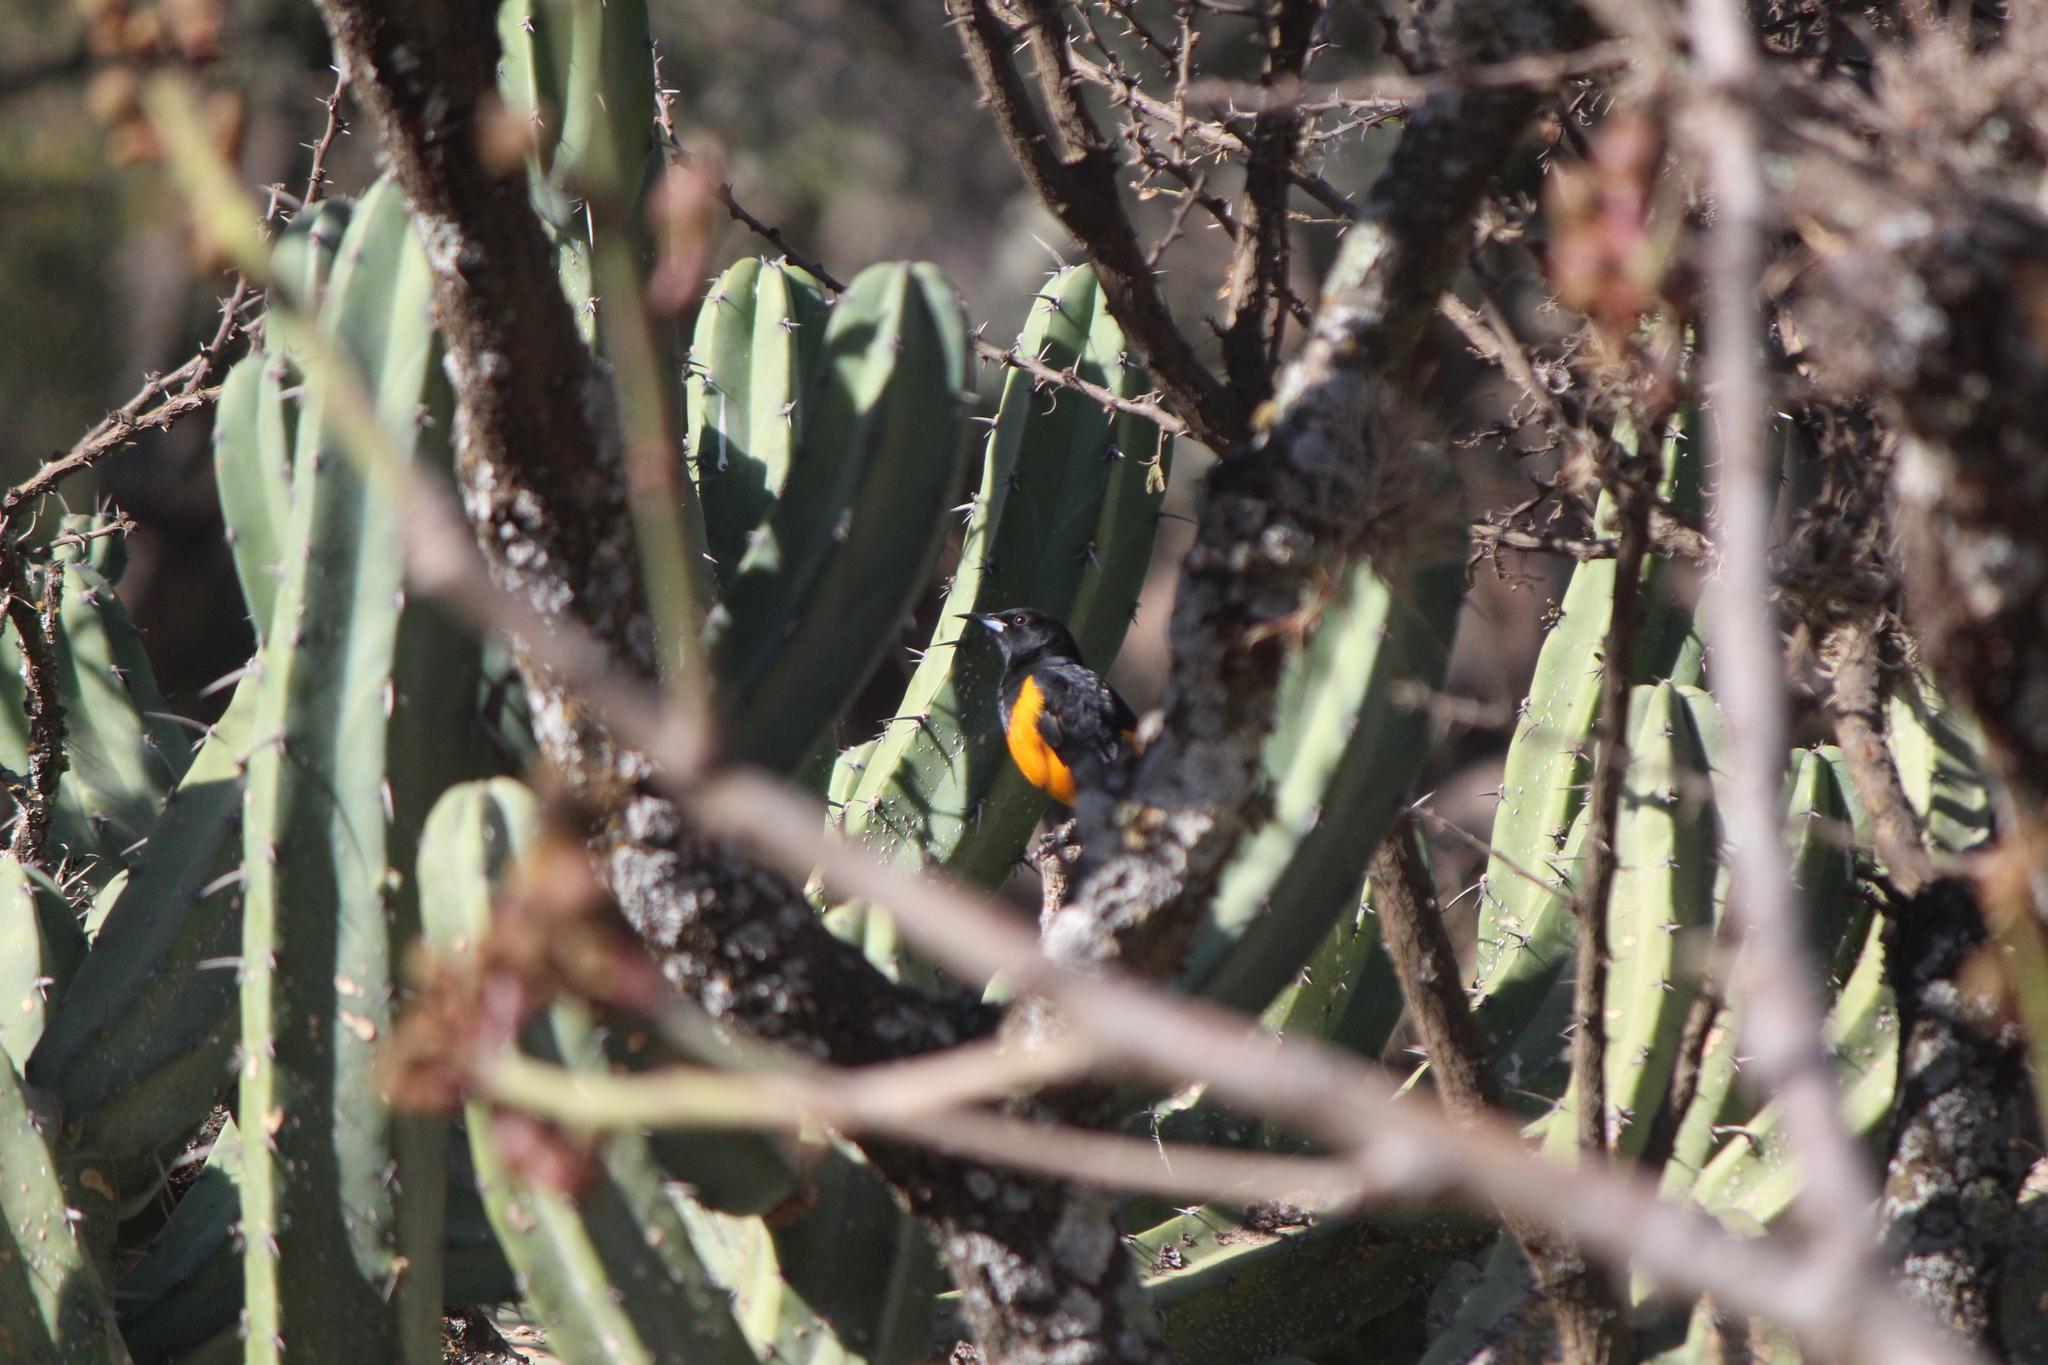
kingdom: Animalia
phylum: Chordata
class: Aves
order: Passeriformes
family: Icteridae
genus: Icterus
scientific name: Icterus wagleri
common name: Black-vented oriole
